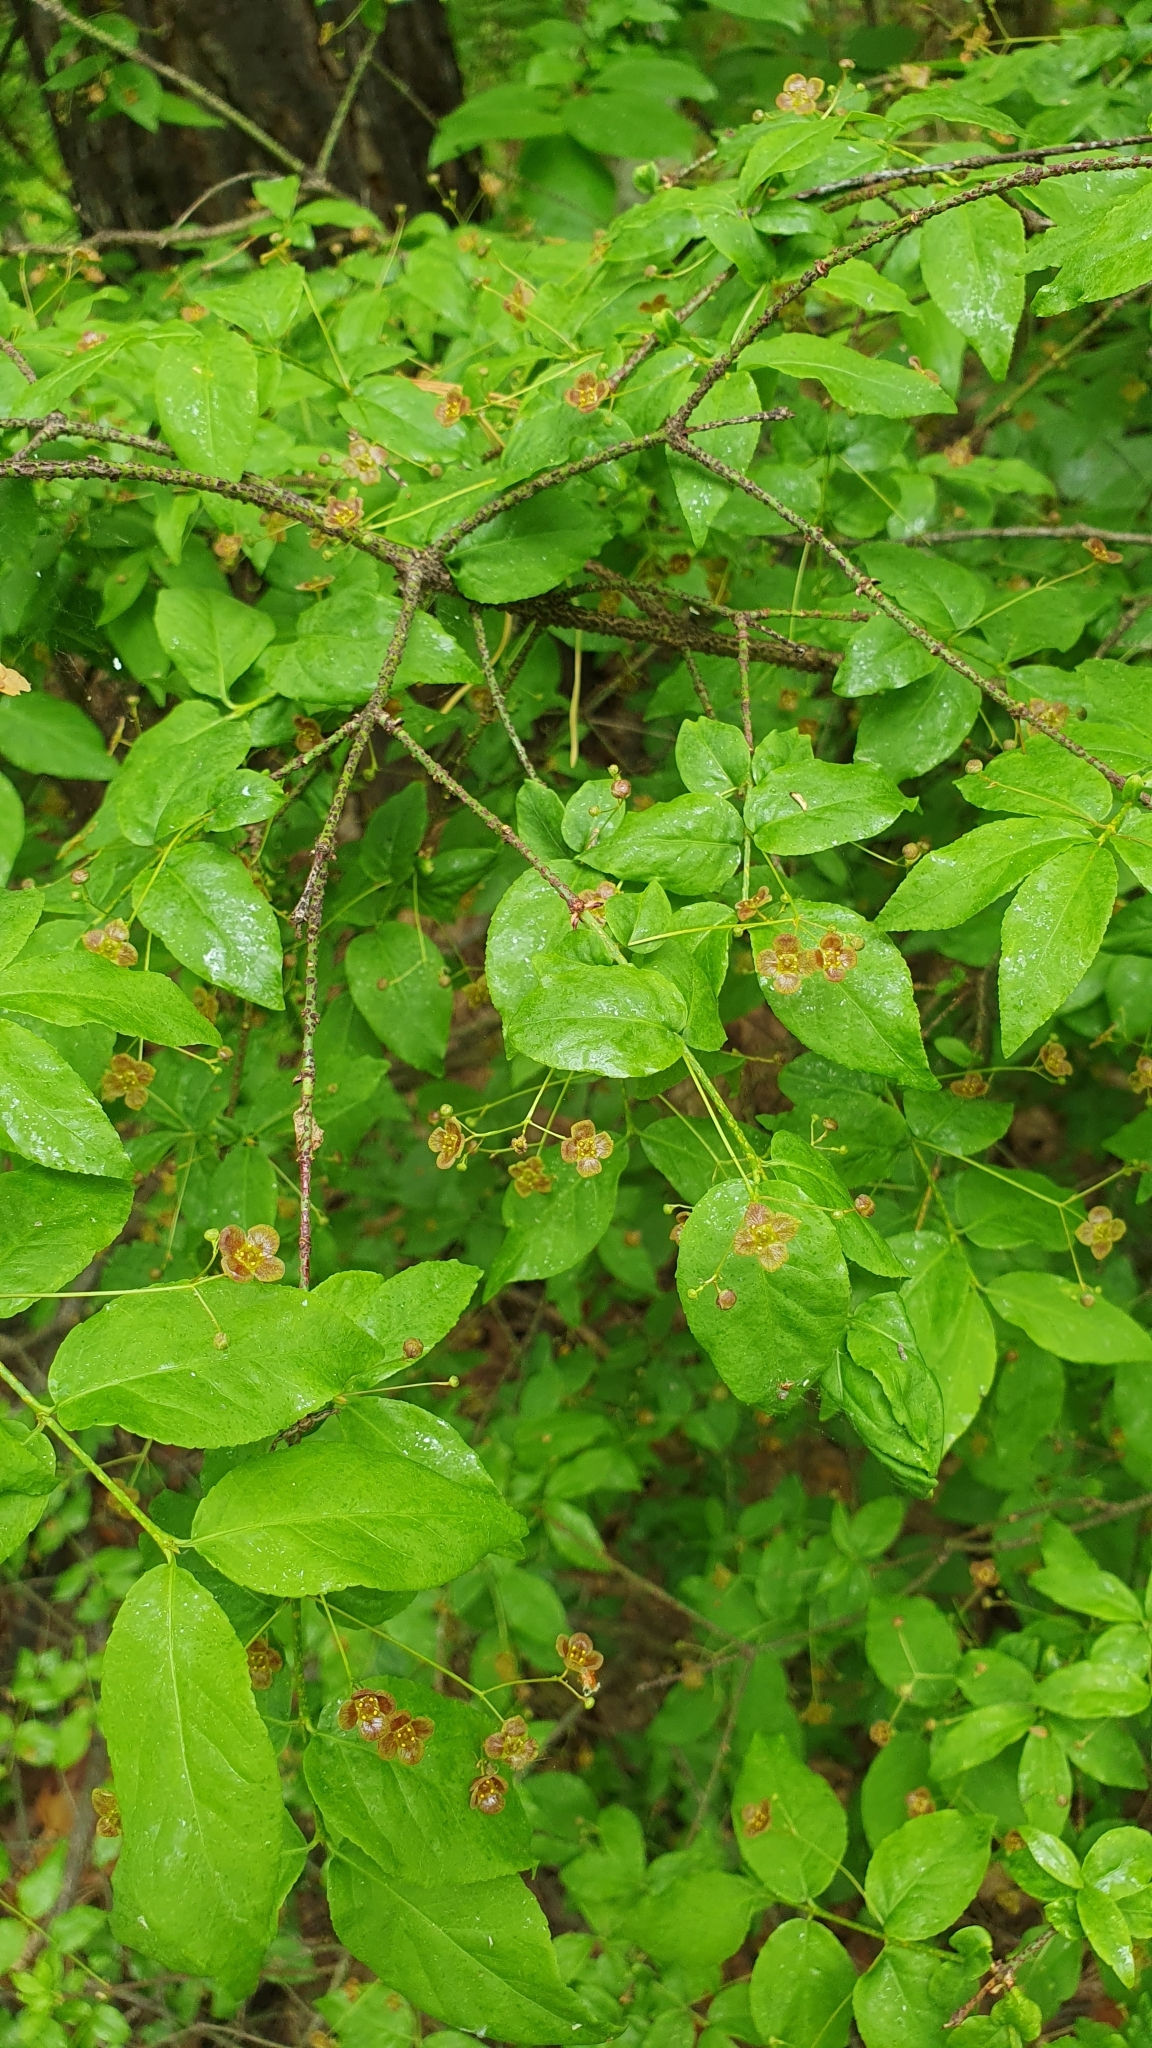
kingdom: Plantae
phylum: Tracheophyta
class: Magnoliopsida
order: Celastrales
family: Celastraceae
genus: Euonymus
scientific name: Euonymus verrucosus
